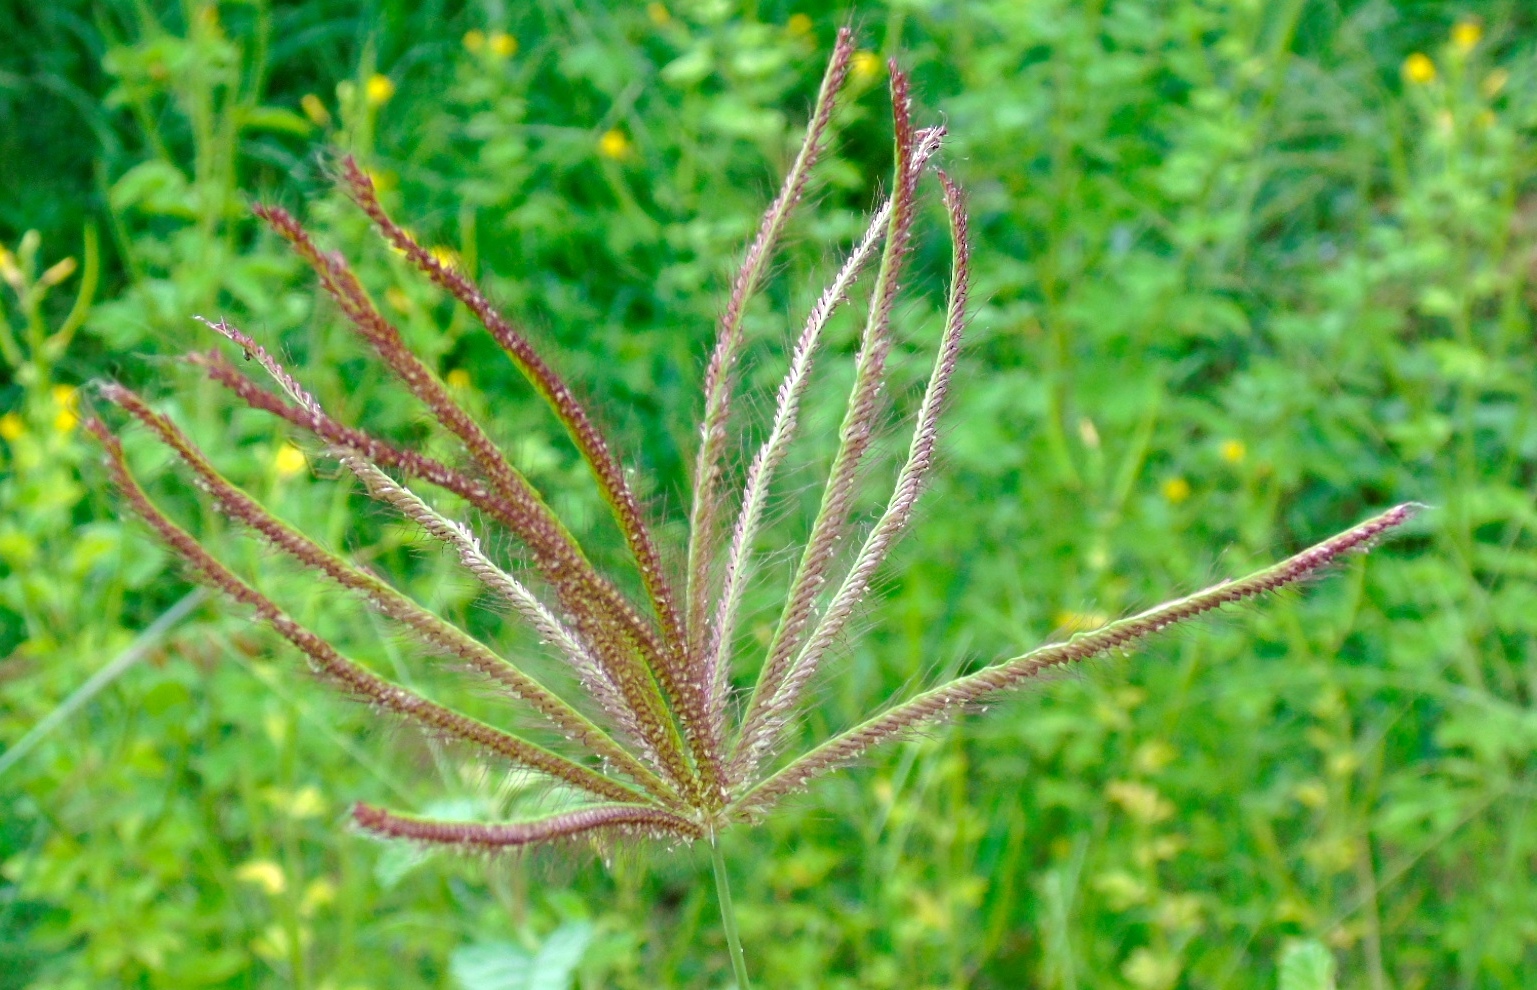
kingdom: Plantae
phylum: Tracheophyta
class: Liliopsida
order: Poales
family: Poaceae
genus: Chloris
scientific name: Chloris gayana
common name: Rhodes grass
